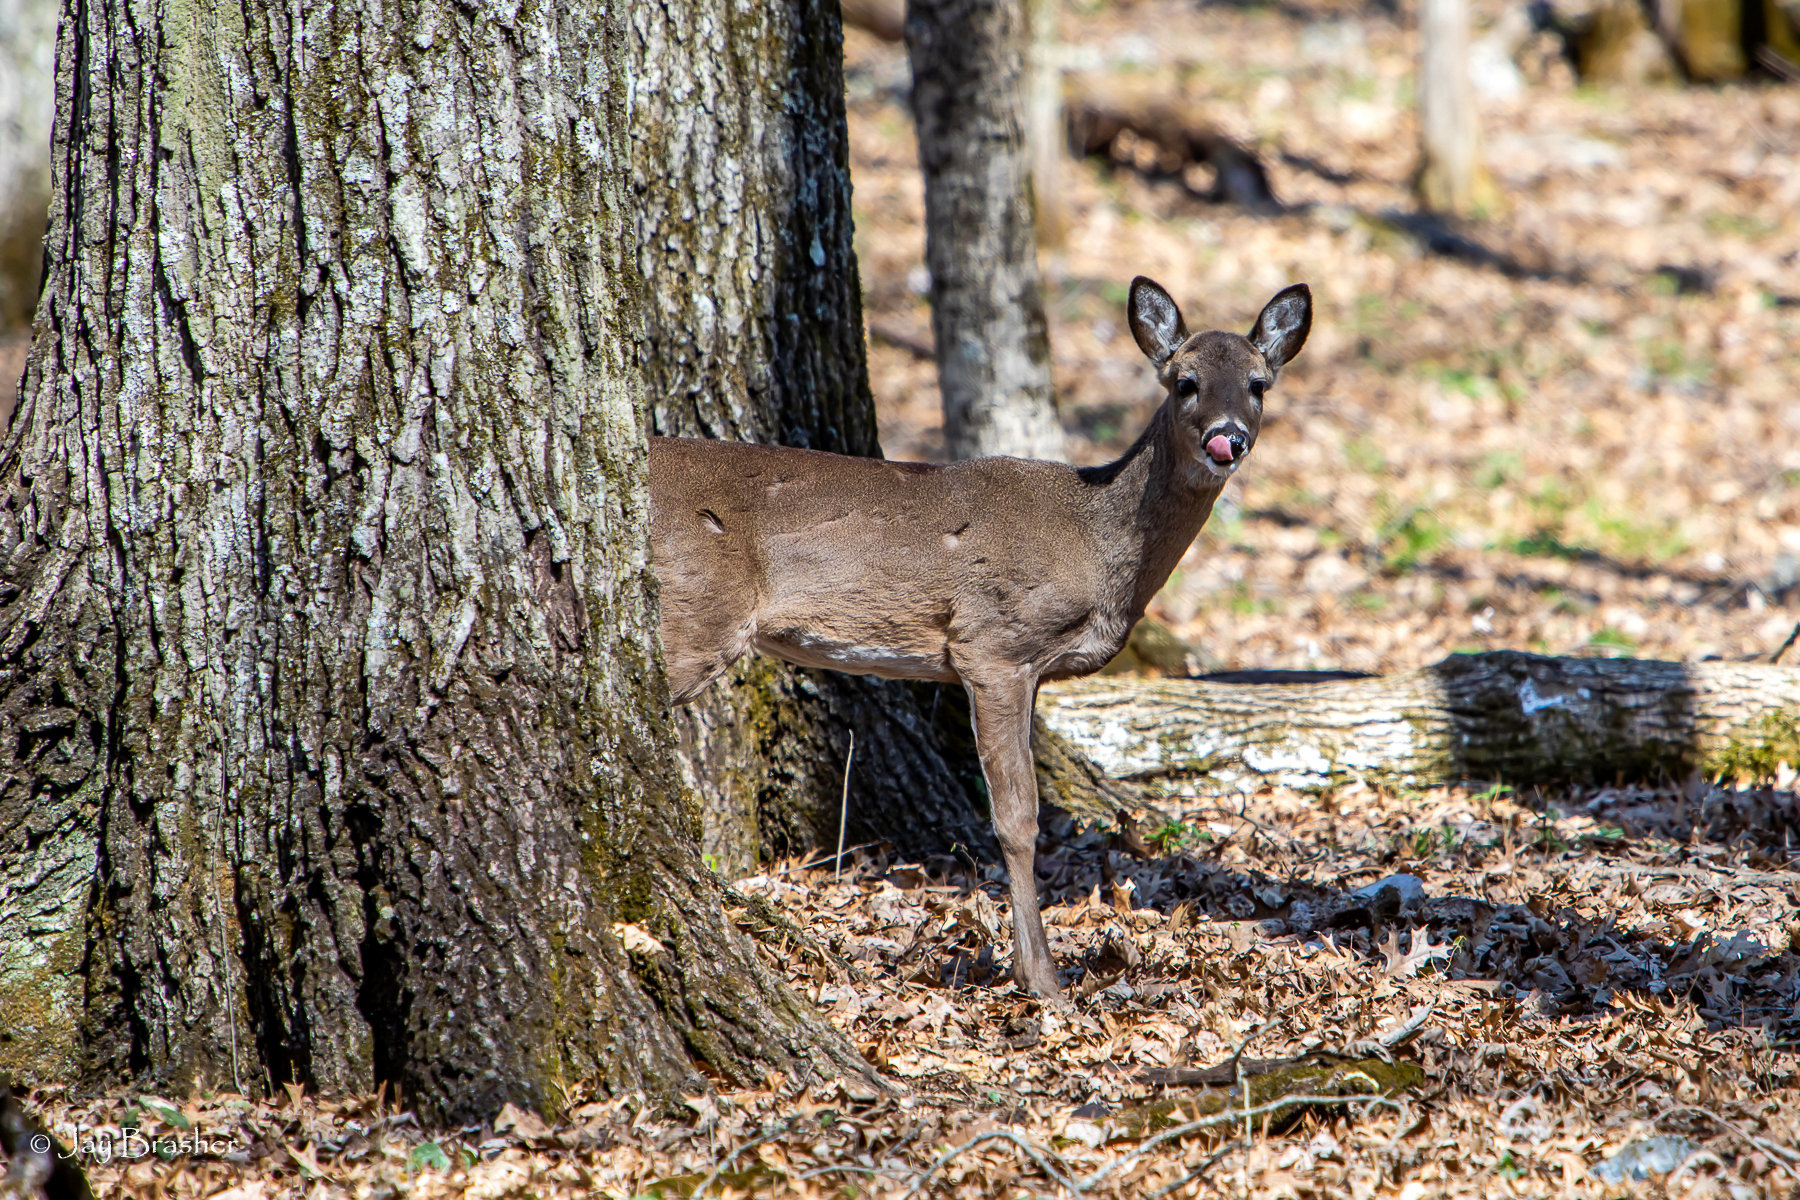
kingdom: Animalia
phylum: Chordata
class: Mammalia
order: Artiodactyla
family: Cervidae
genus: Odocoileus
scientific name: Odocoileus virginianus
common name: White-tailed deer
